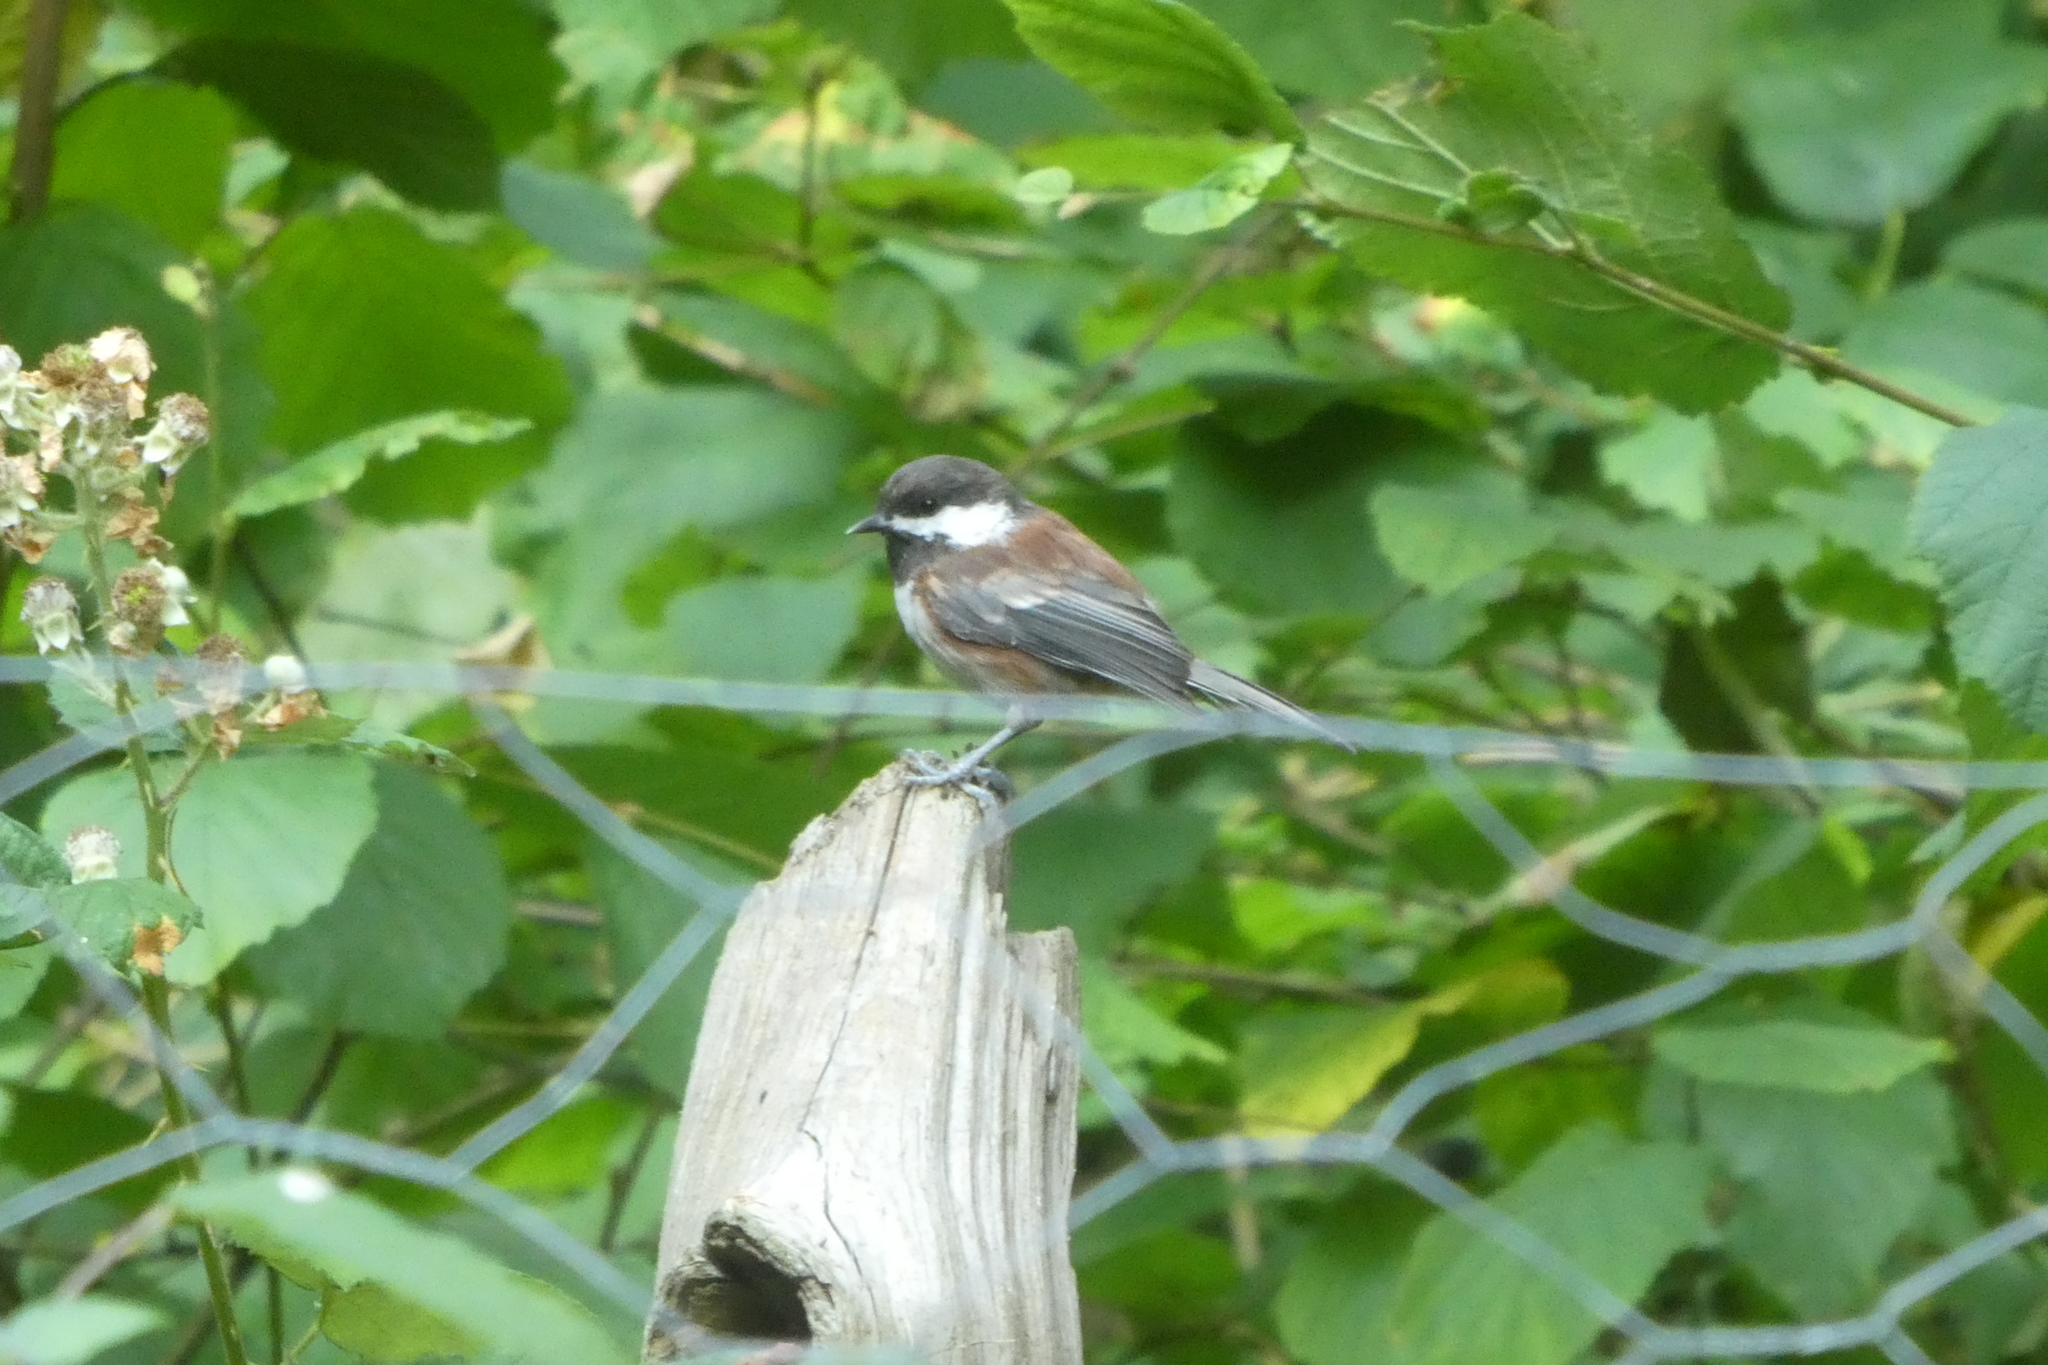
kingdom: Animalia
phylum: Chordata
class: Aves
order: Passeriformes
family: Paridae
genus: Poecile
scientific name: Poecile rufescens
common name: Chestnut-backed chickadee
